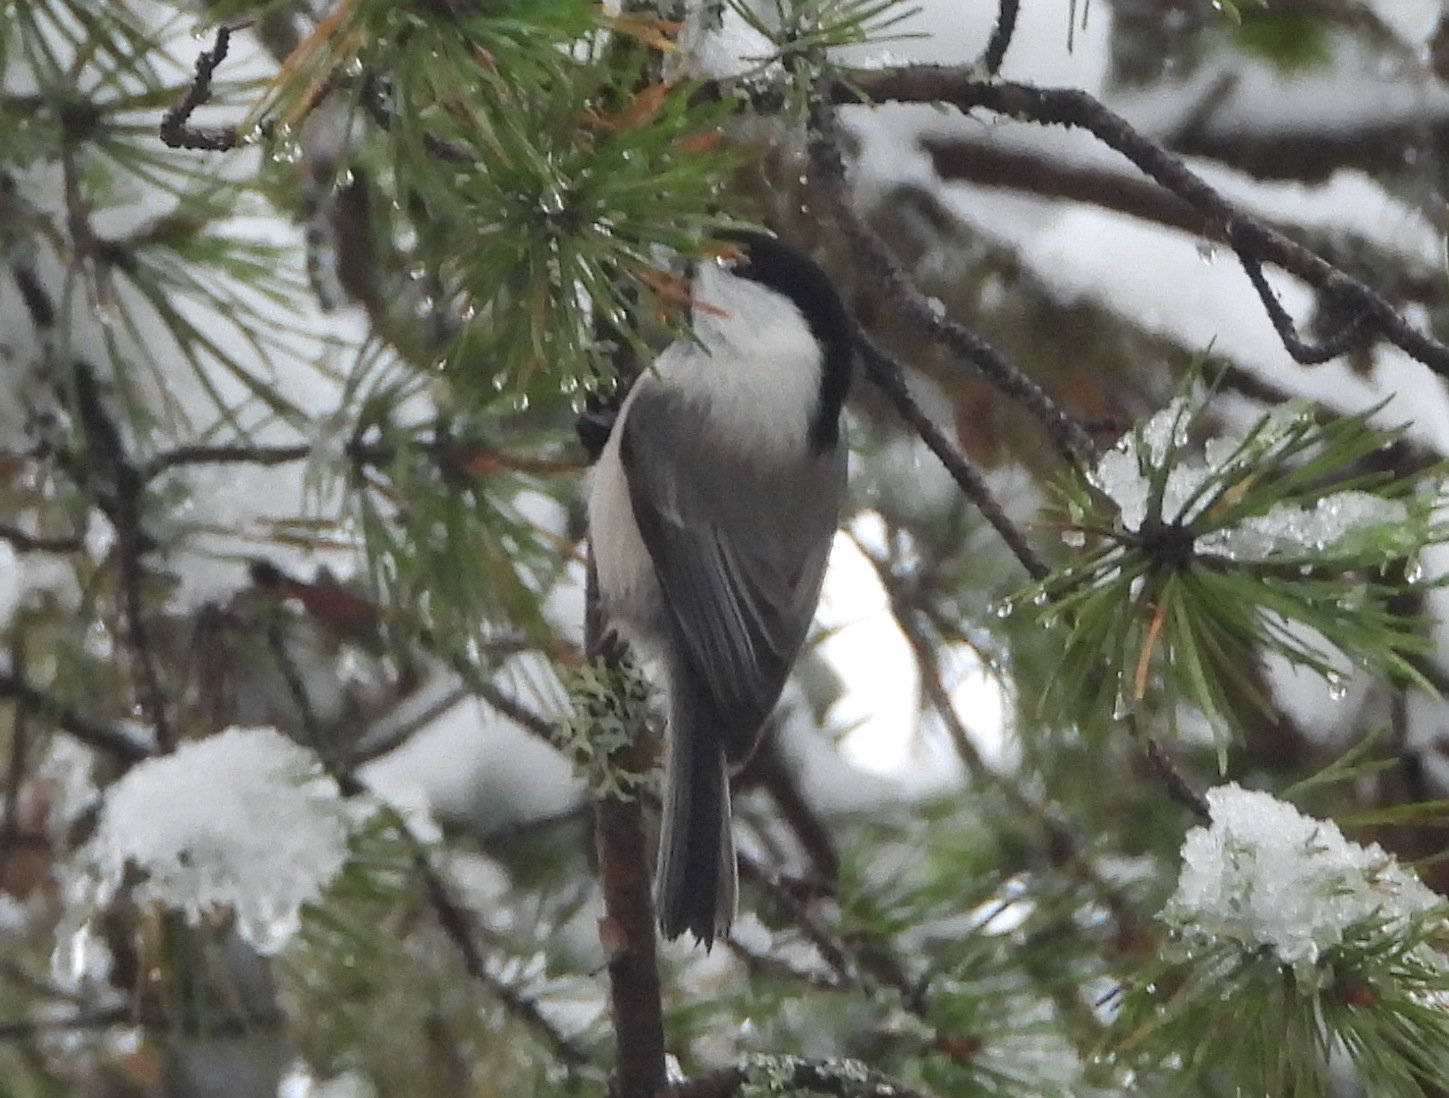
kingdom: Animalia
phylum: Chordata
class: Aves
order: Passeriformes
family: Paridae
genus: Poecile
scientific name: Poecile montanus
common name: Willow tit
